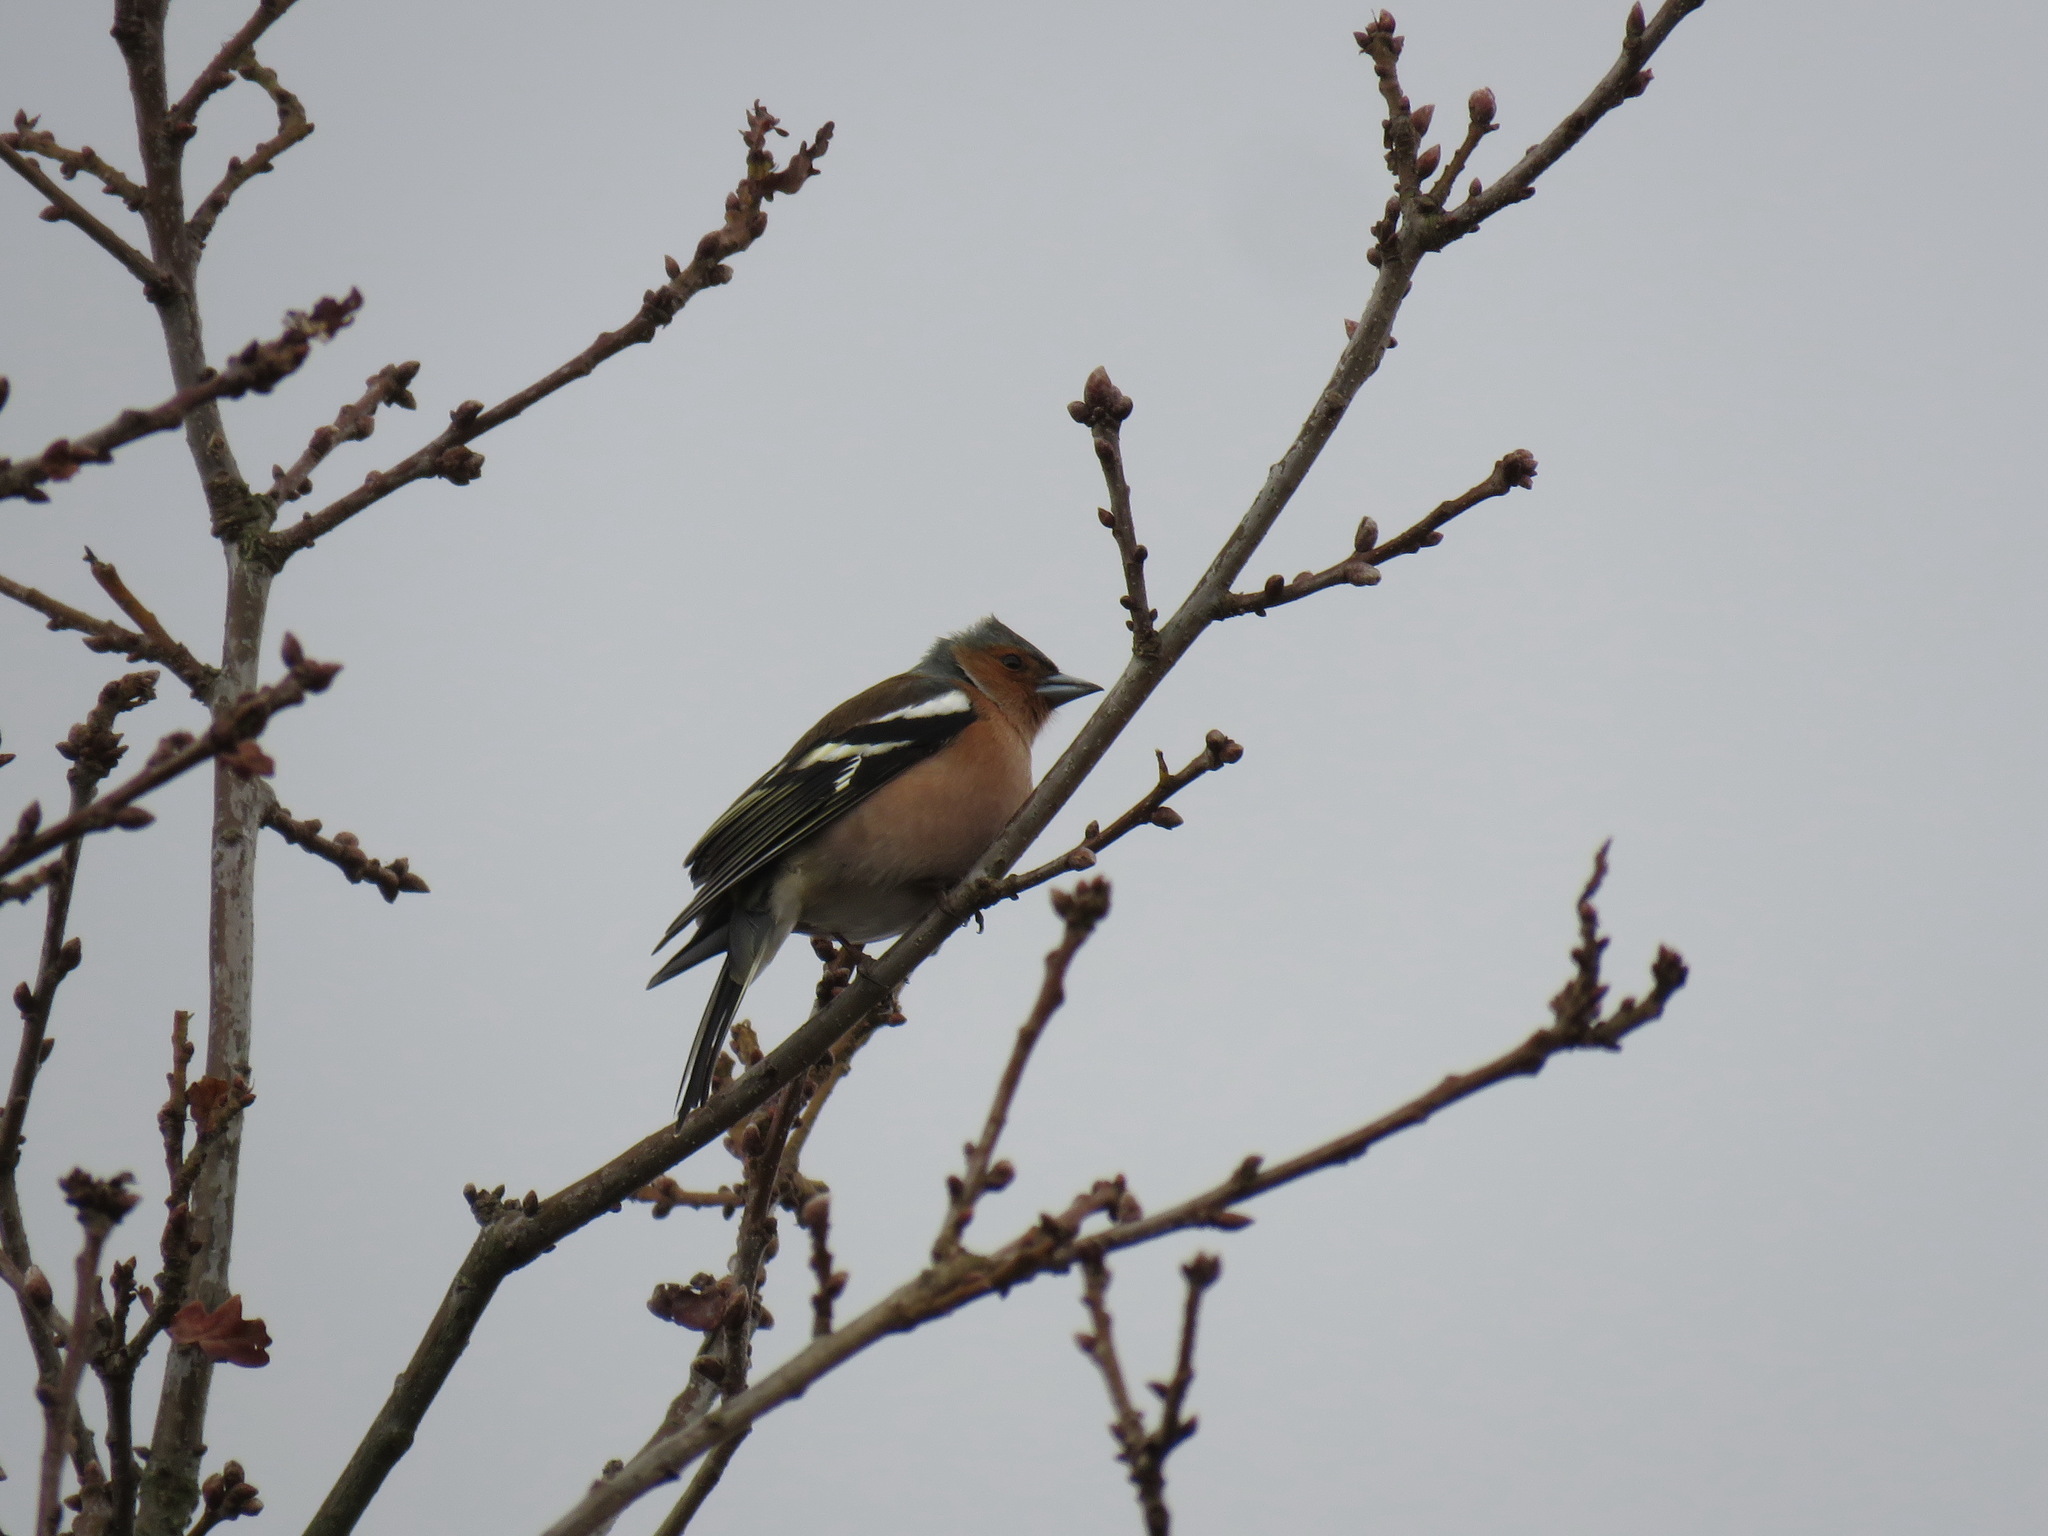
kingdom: Animalia
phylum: Chordata
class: Aves
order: Passeriformes
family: Fringillidae
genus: Fringilla
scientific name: Fringilla coelebs
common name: Common chaffinch
